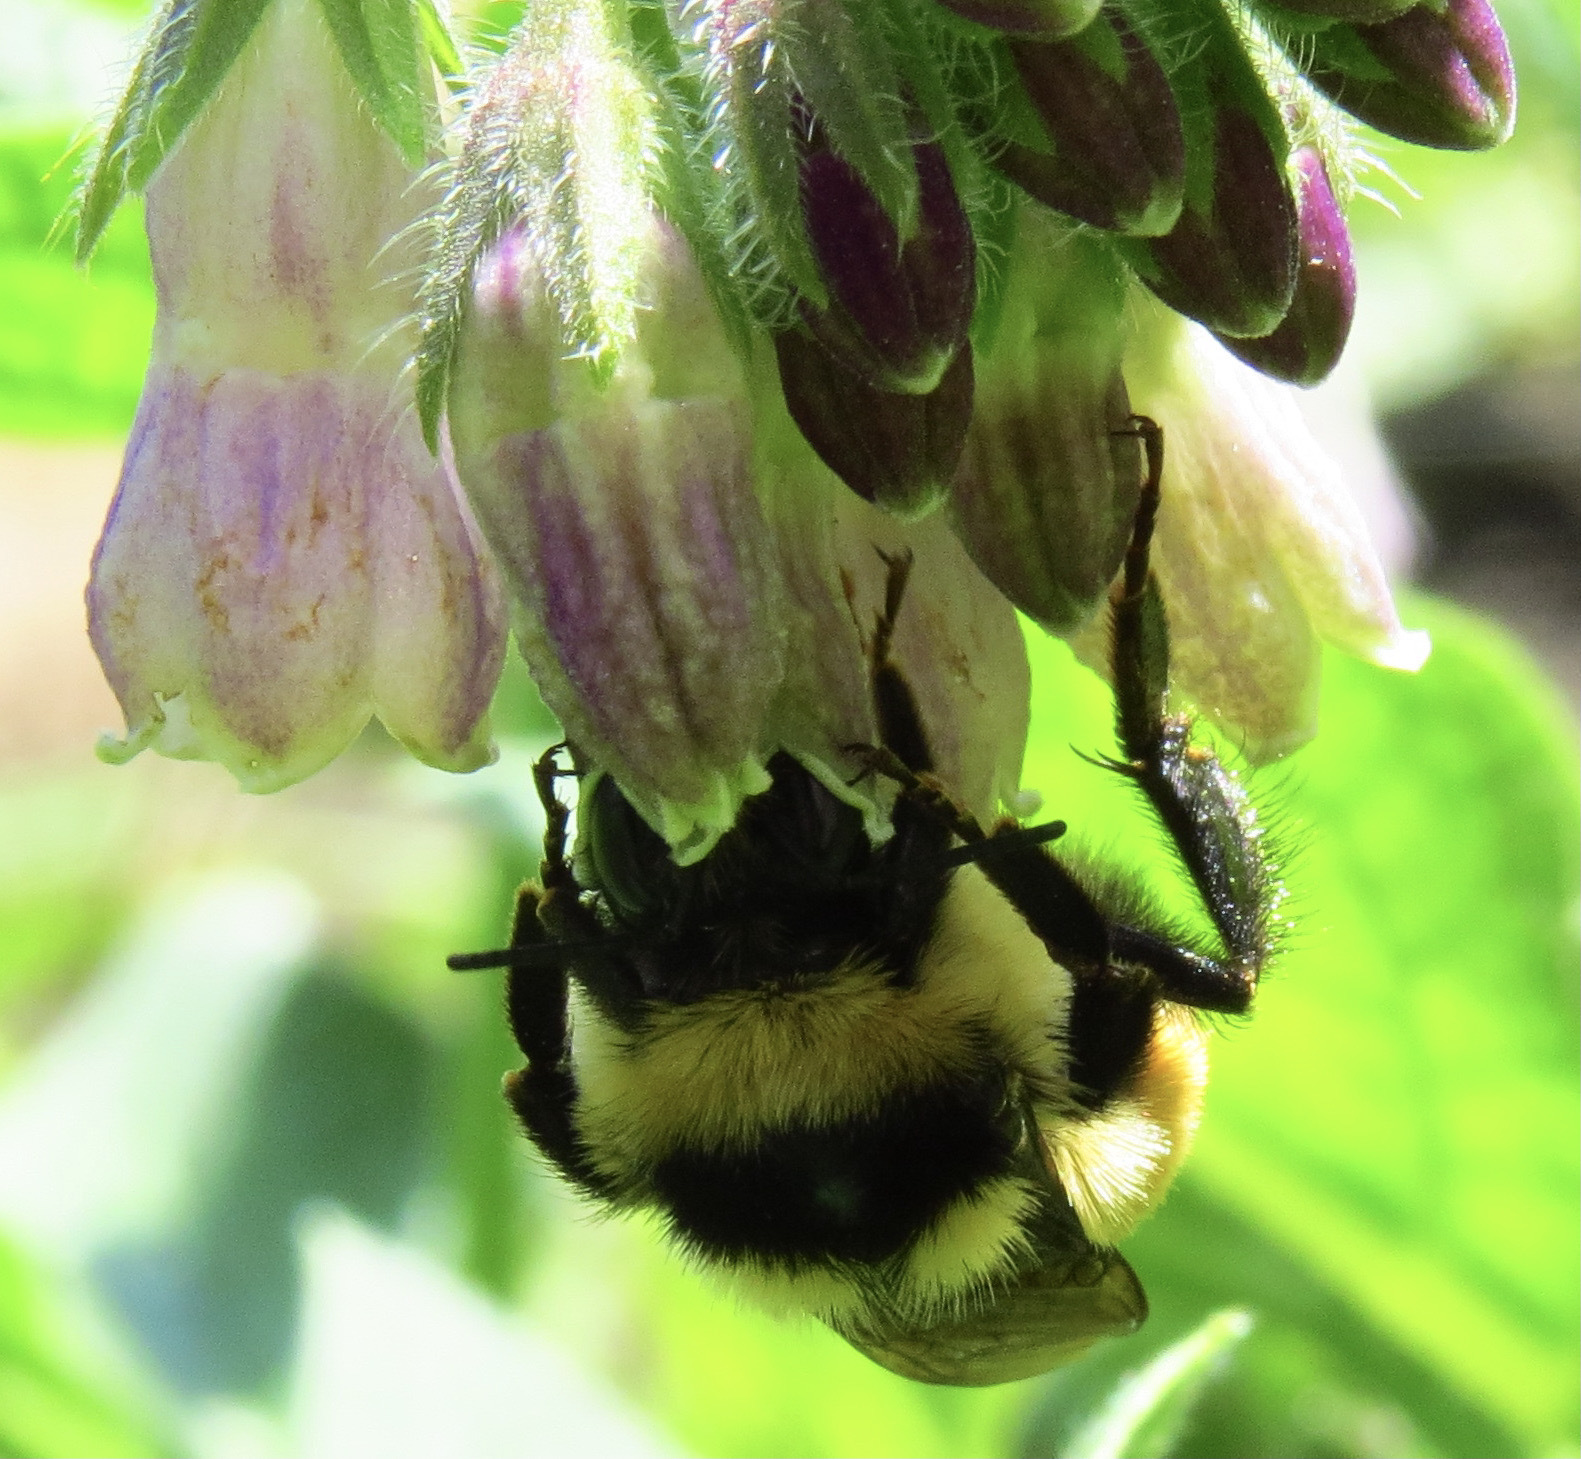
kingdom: Animalia
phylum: Arthropoda
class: Insecta
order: Hymenoptera
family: Apidae
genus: Bombus
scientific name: Bombus ternarius
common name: Tri-colored bumble bee
